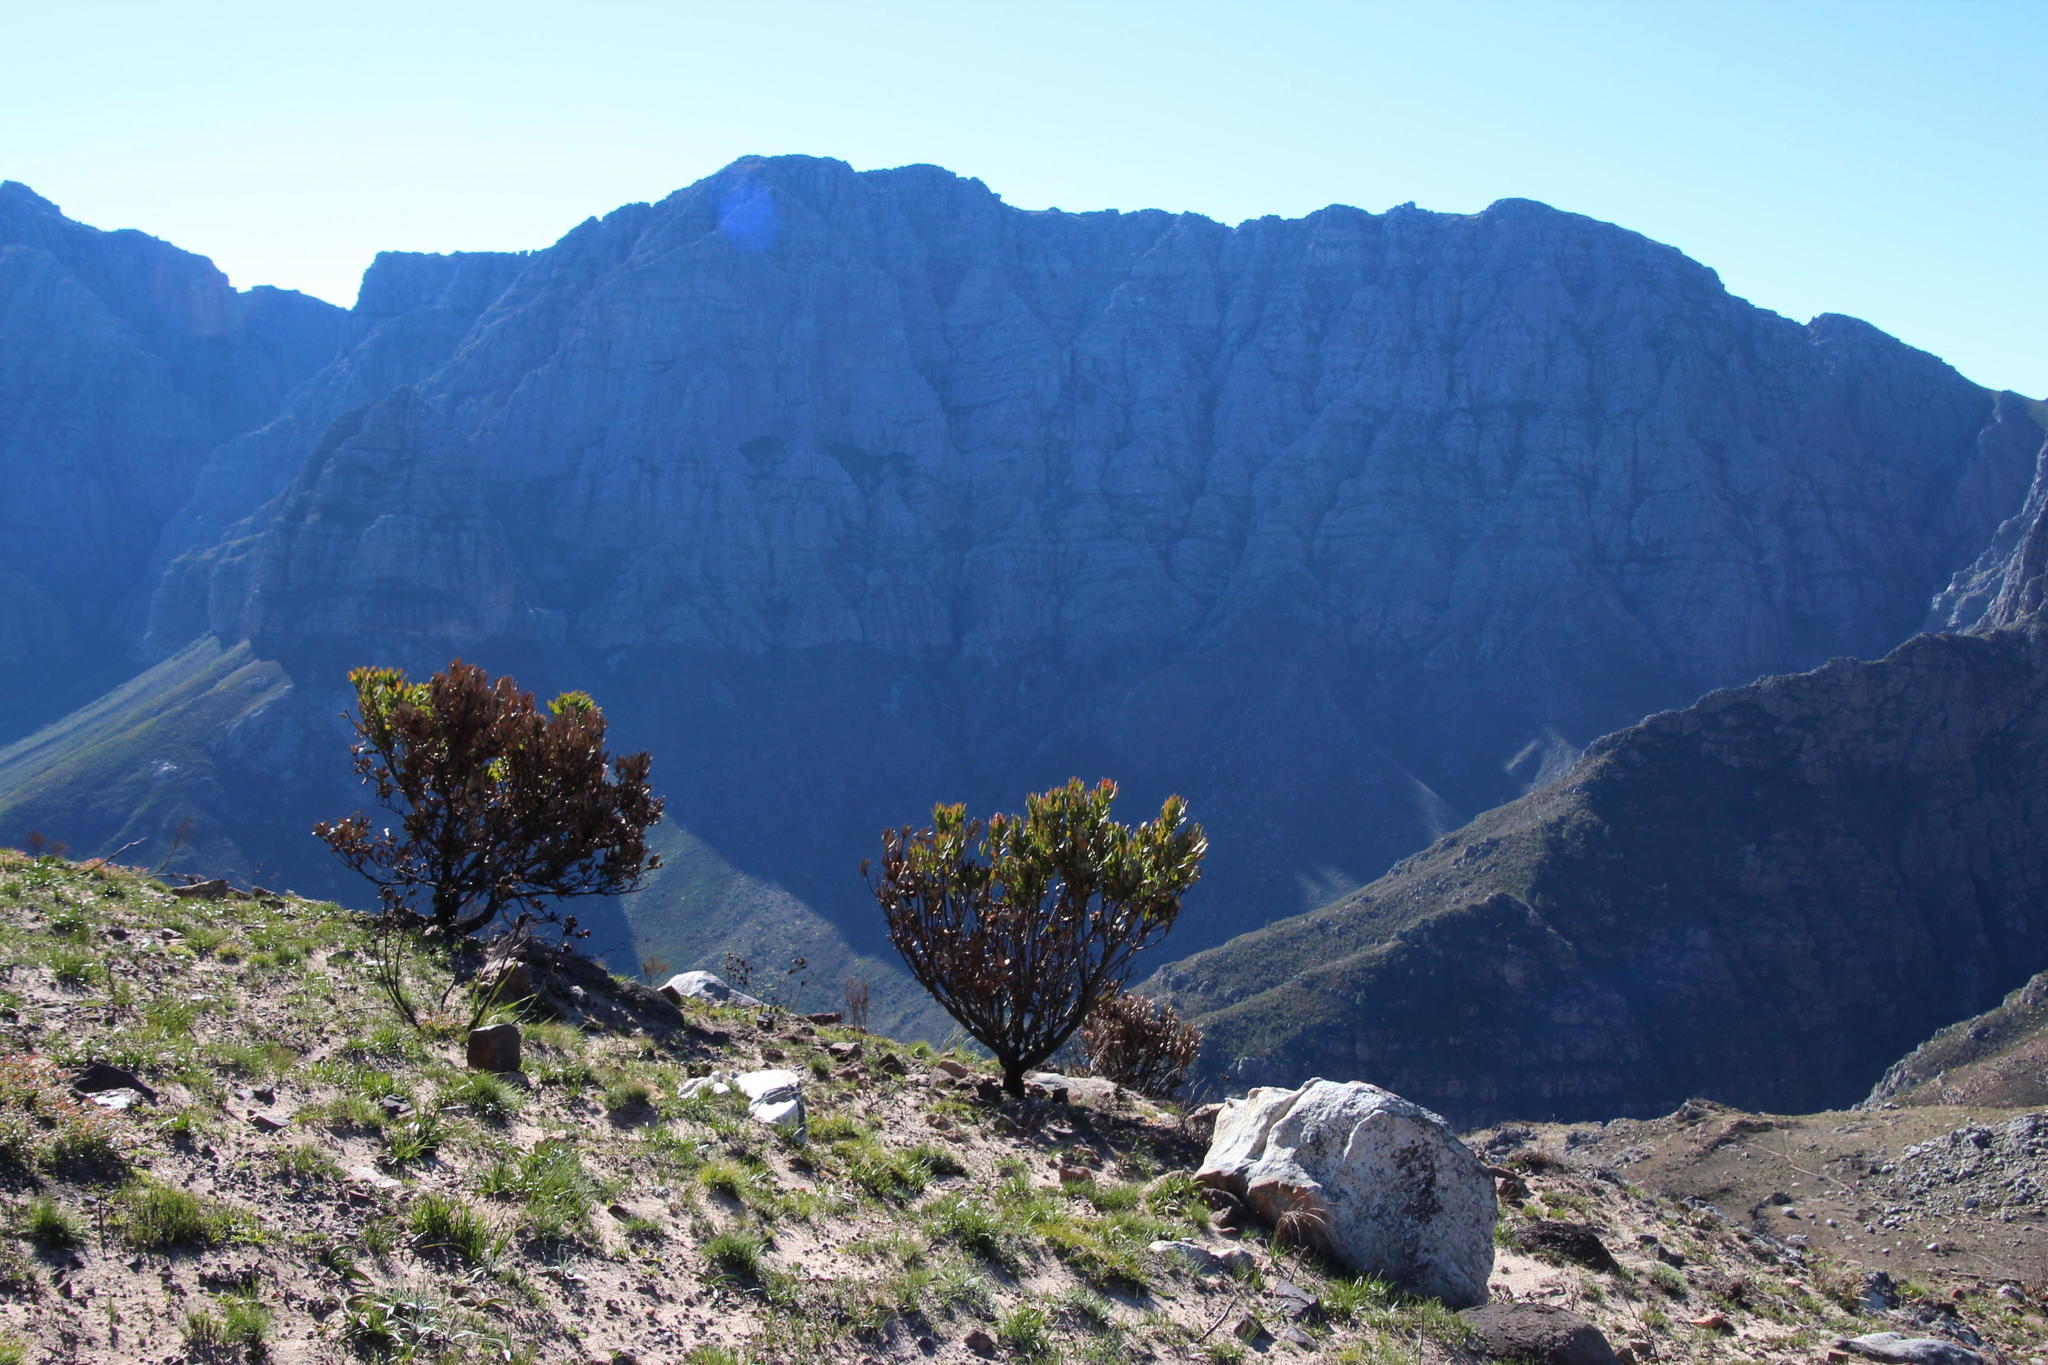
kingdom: Plantae
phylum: Tracheophyta
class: Magnoliopsida
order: Proteales
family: Proteaceae
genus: Protea
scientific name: Protea laurifolia
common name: Grey-leaf sugarbsh
